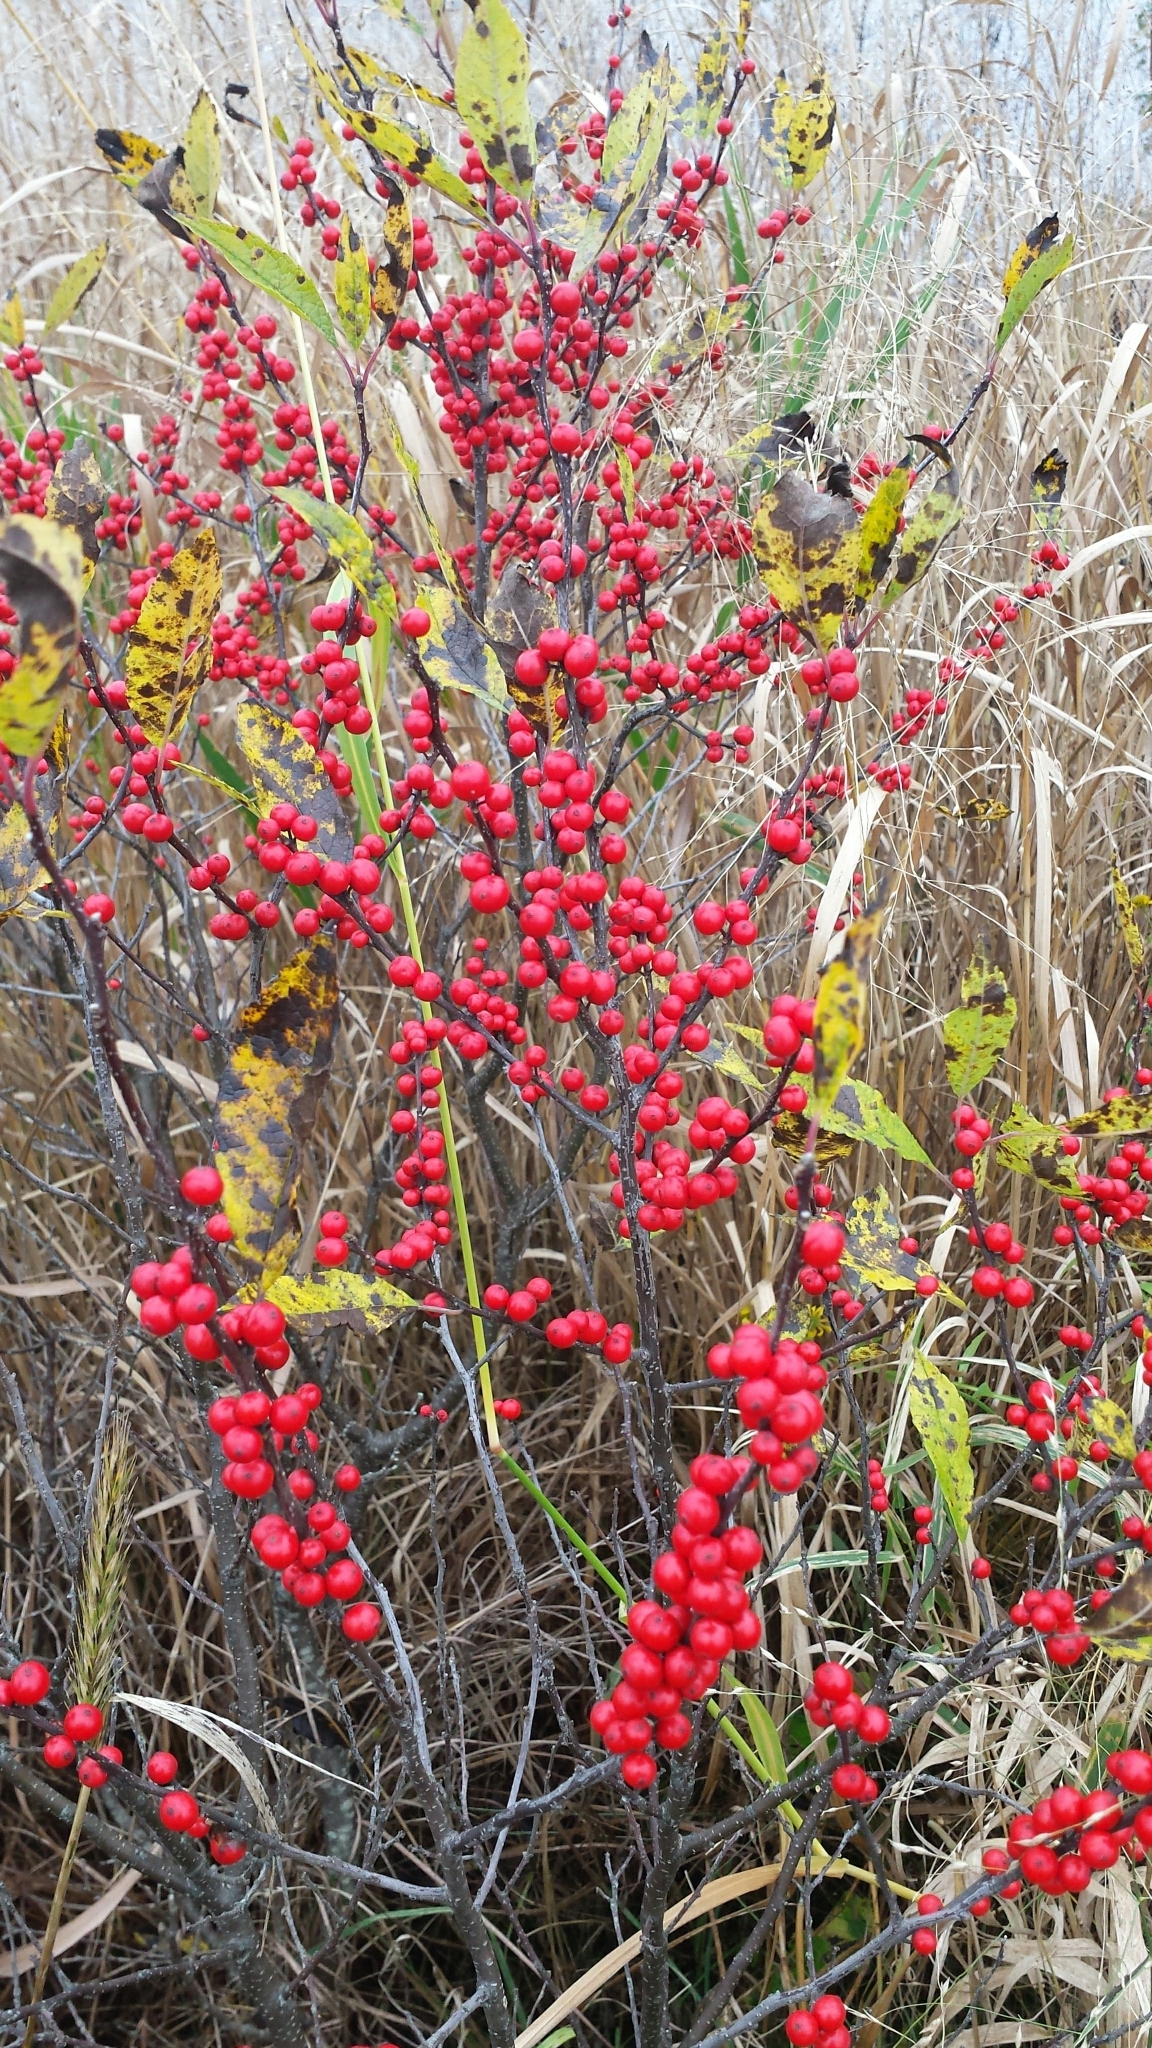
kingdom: Plantae
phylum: Tracheophyta
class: Magnoliopsida
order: Aquifoliales
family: Aquifoliaceae
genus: Ilex
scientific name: Ilex verticillata
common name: Virginia winterberry
